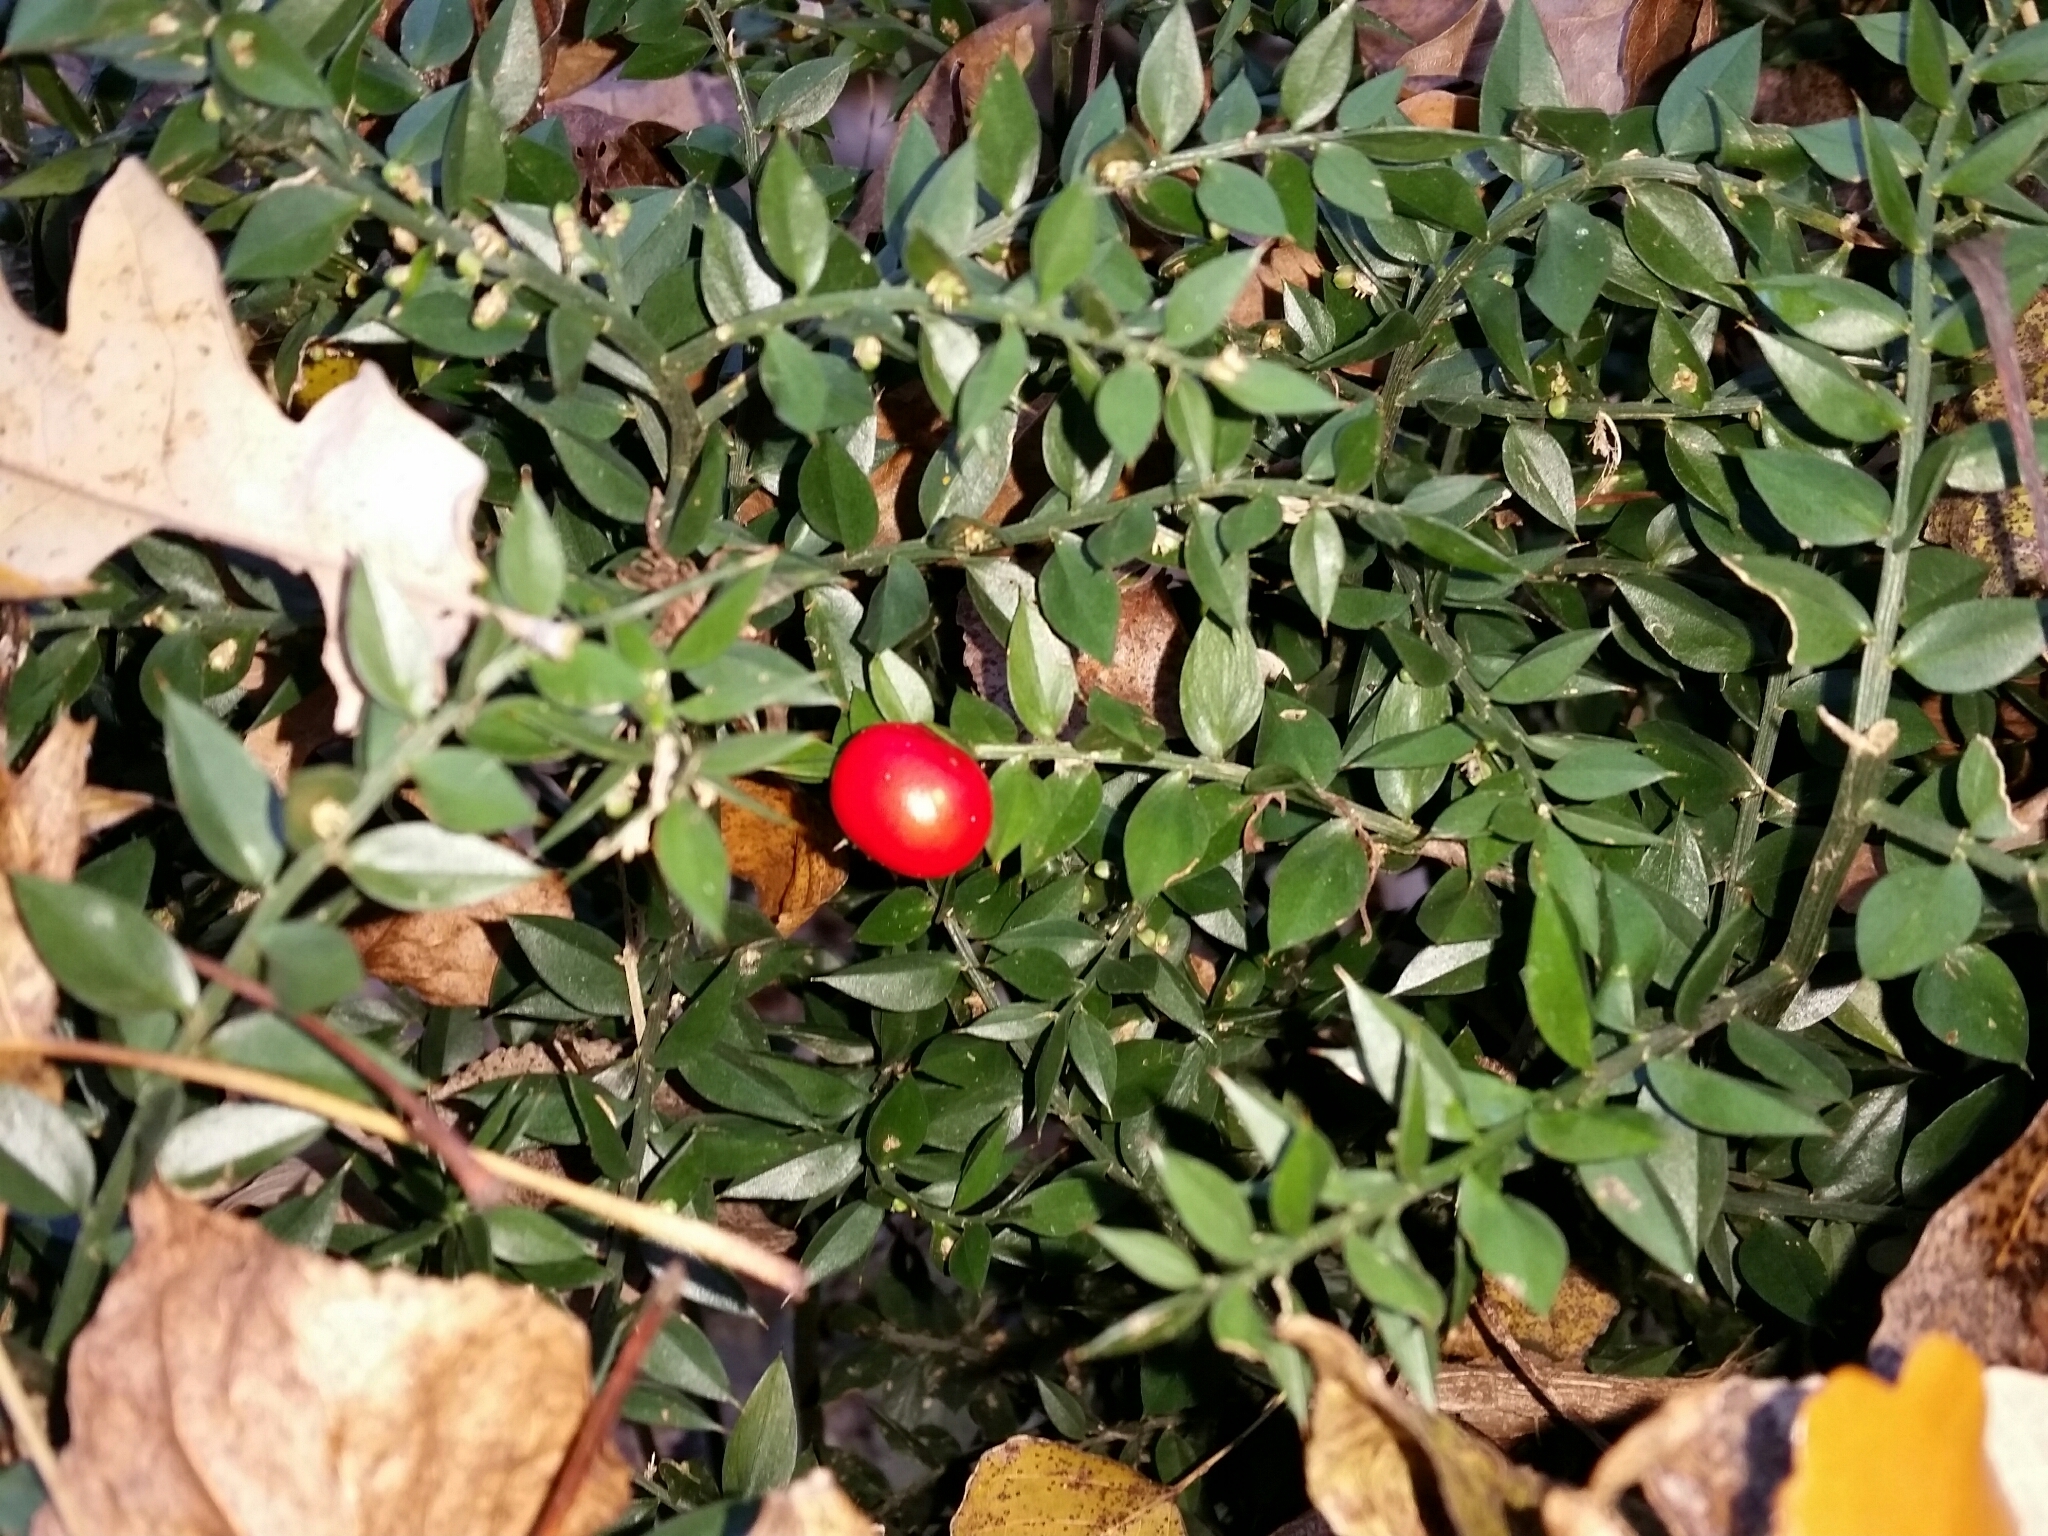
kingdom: Plantae
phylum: Tracheophyta
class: Liliopsida
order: Asparagales
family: Asparagaceae
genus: Ruscus
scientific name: Ruscus aculeatus
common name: Butcher's-broom
